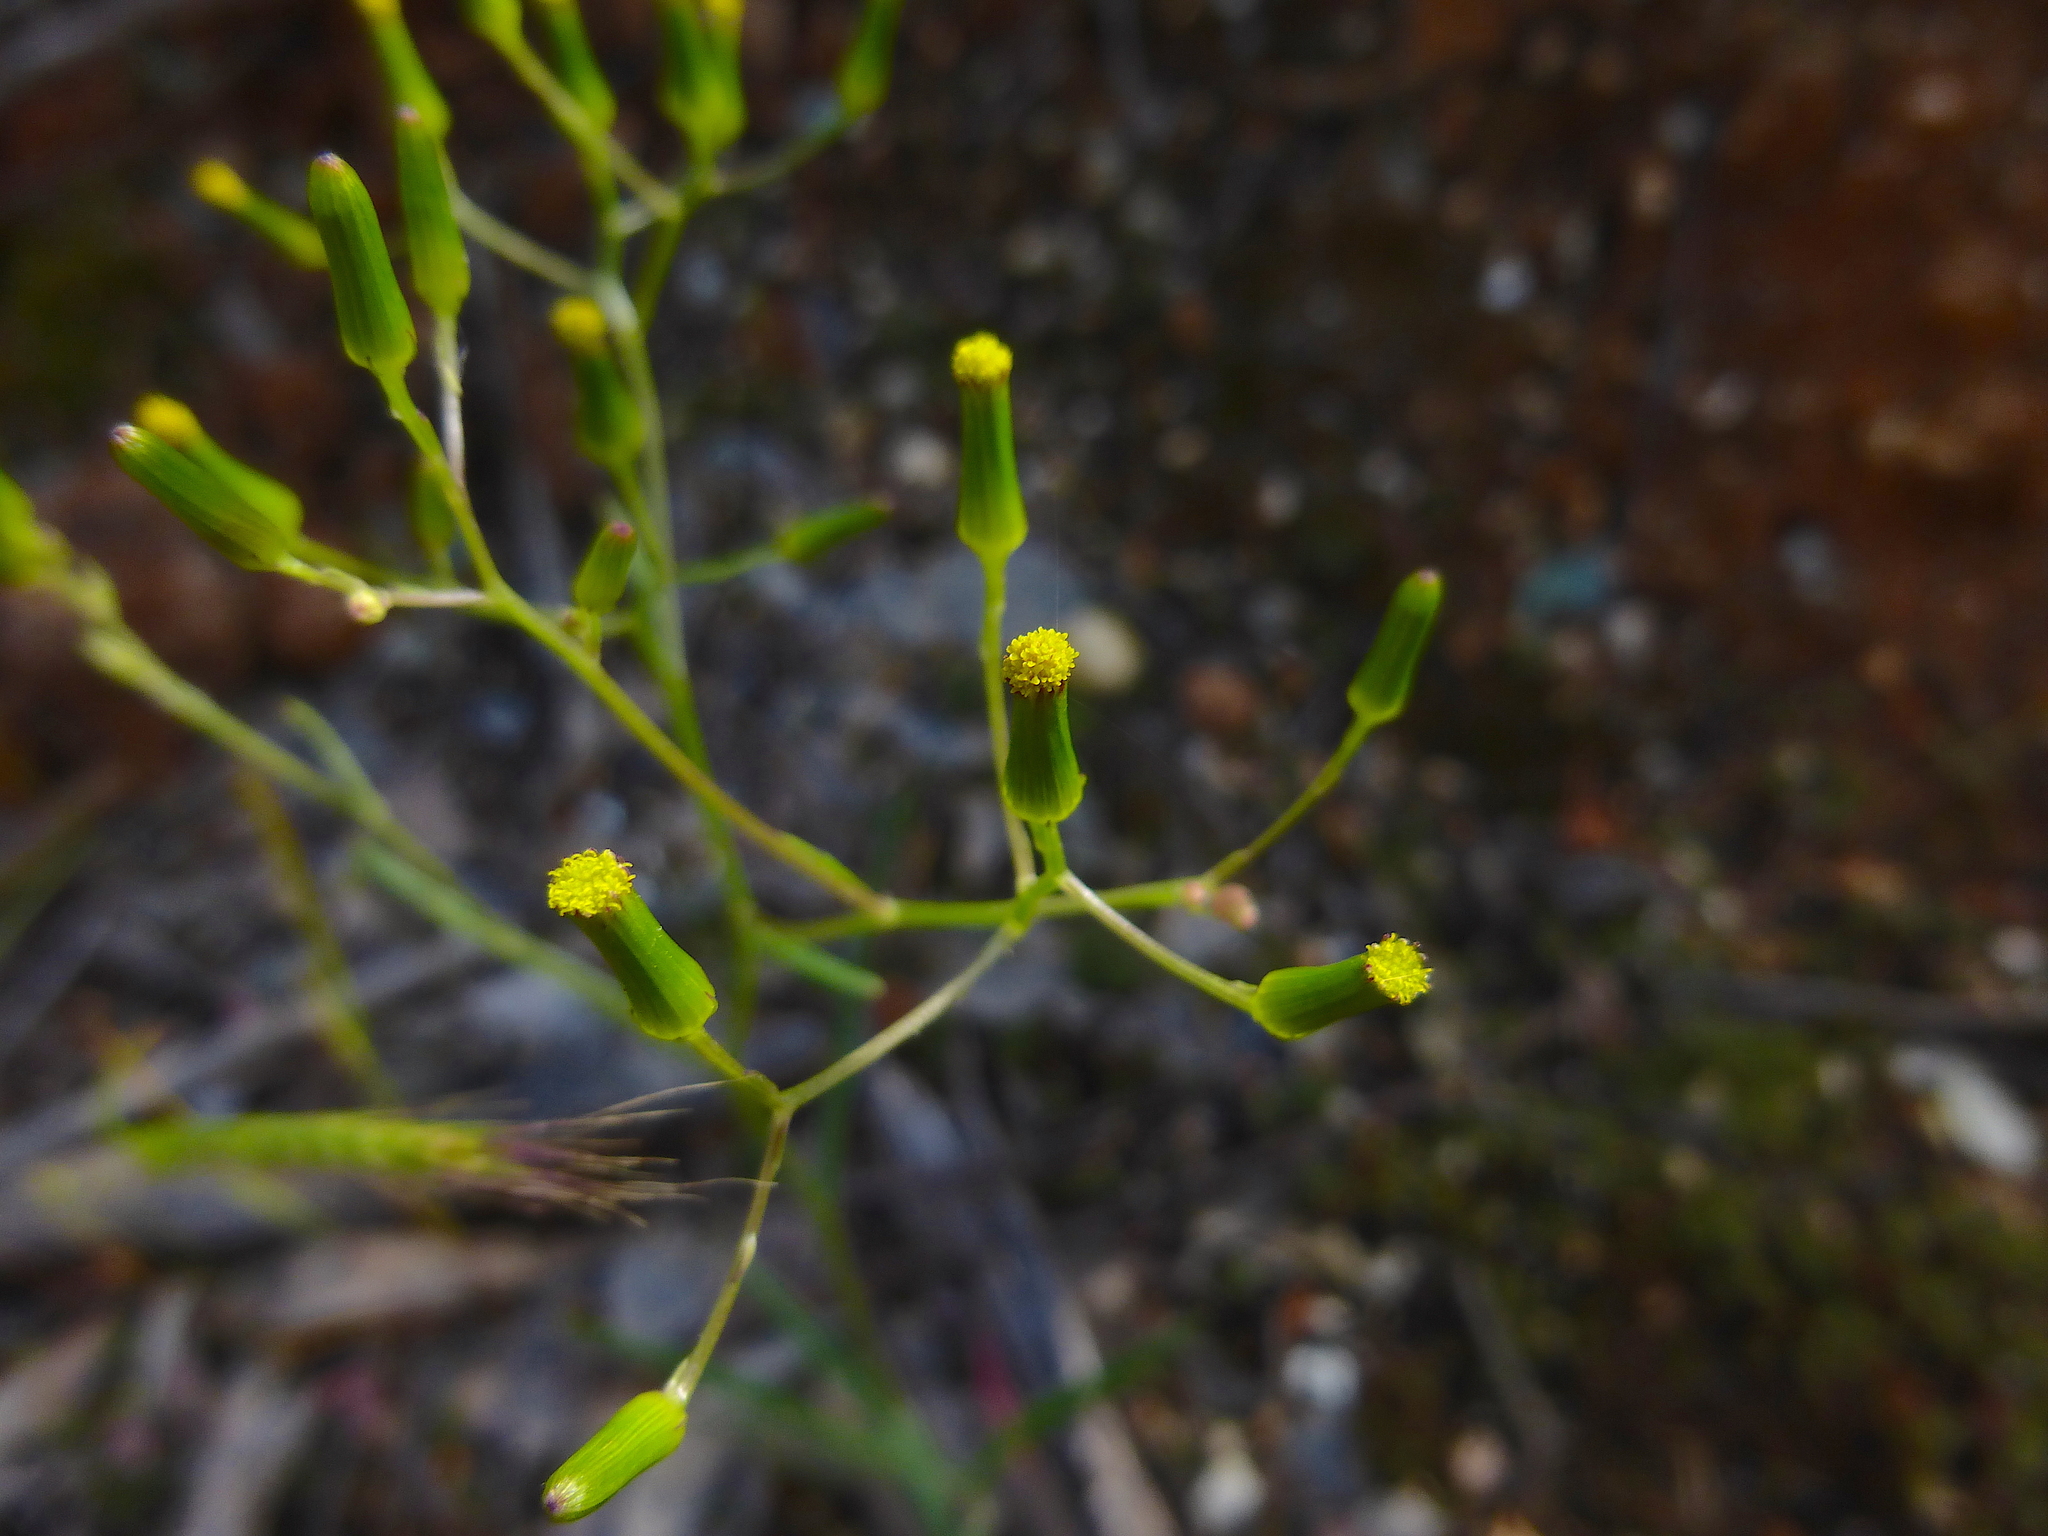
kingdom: Plantae
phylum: Tracheophyta
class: Magnoliopsida
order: Asterales
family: Asteraceae
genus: Senecio
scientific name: Senecio phelleus
